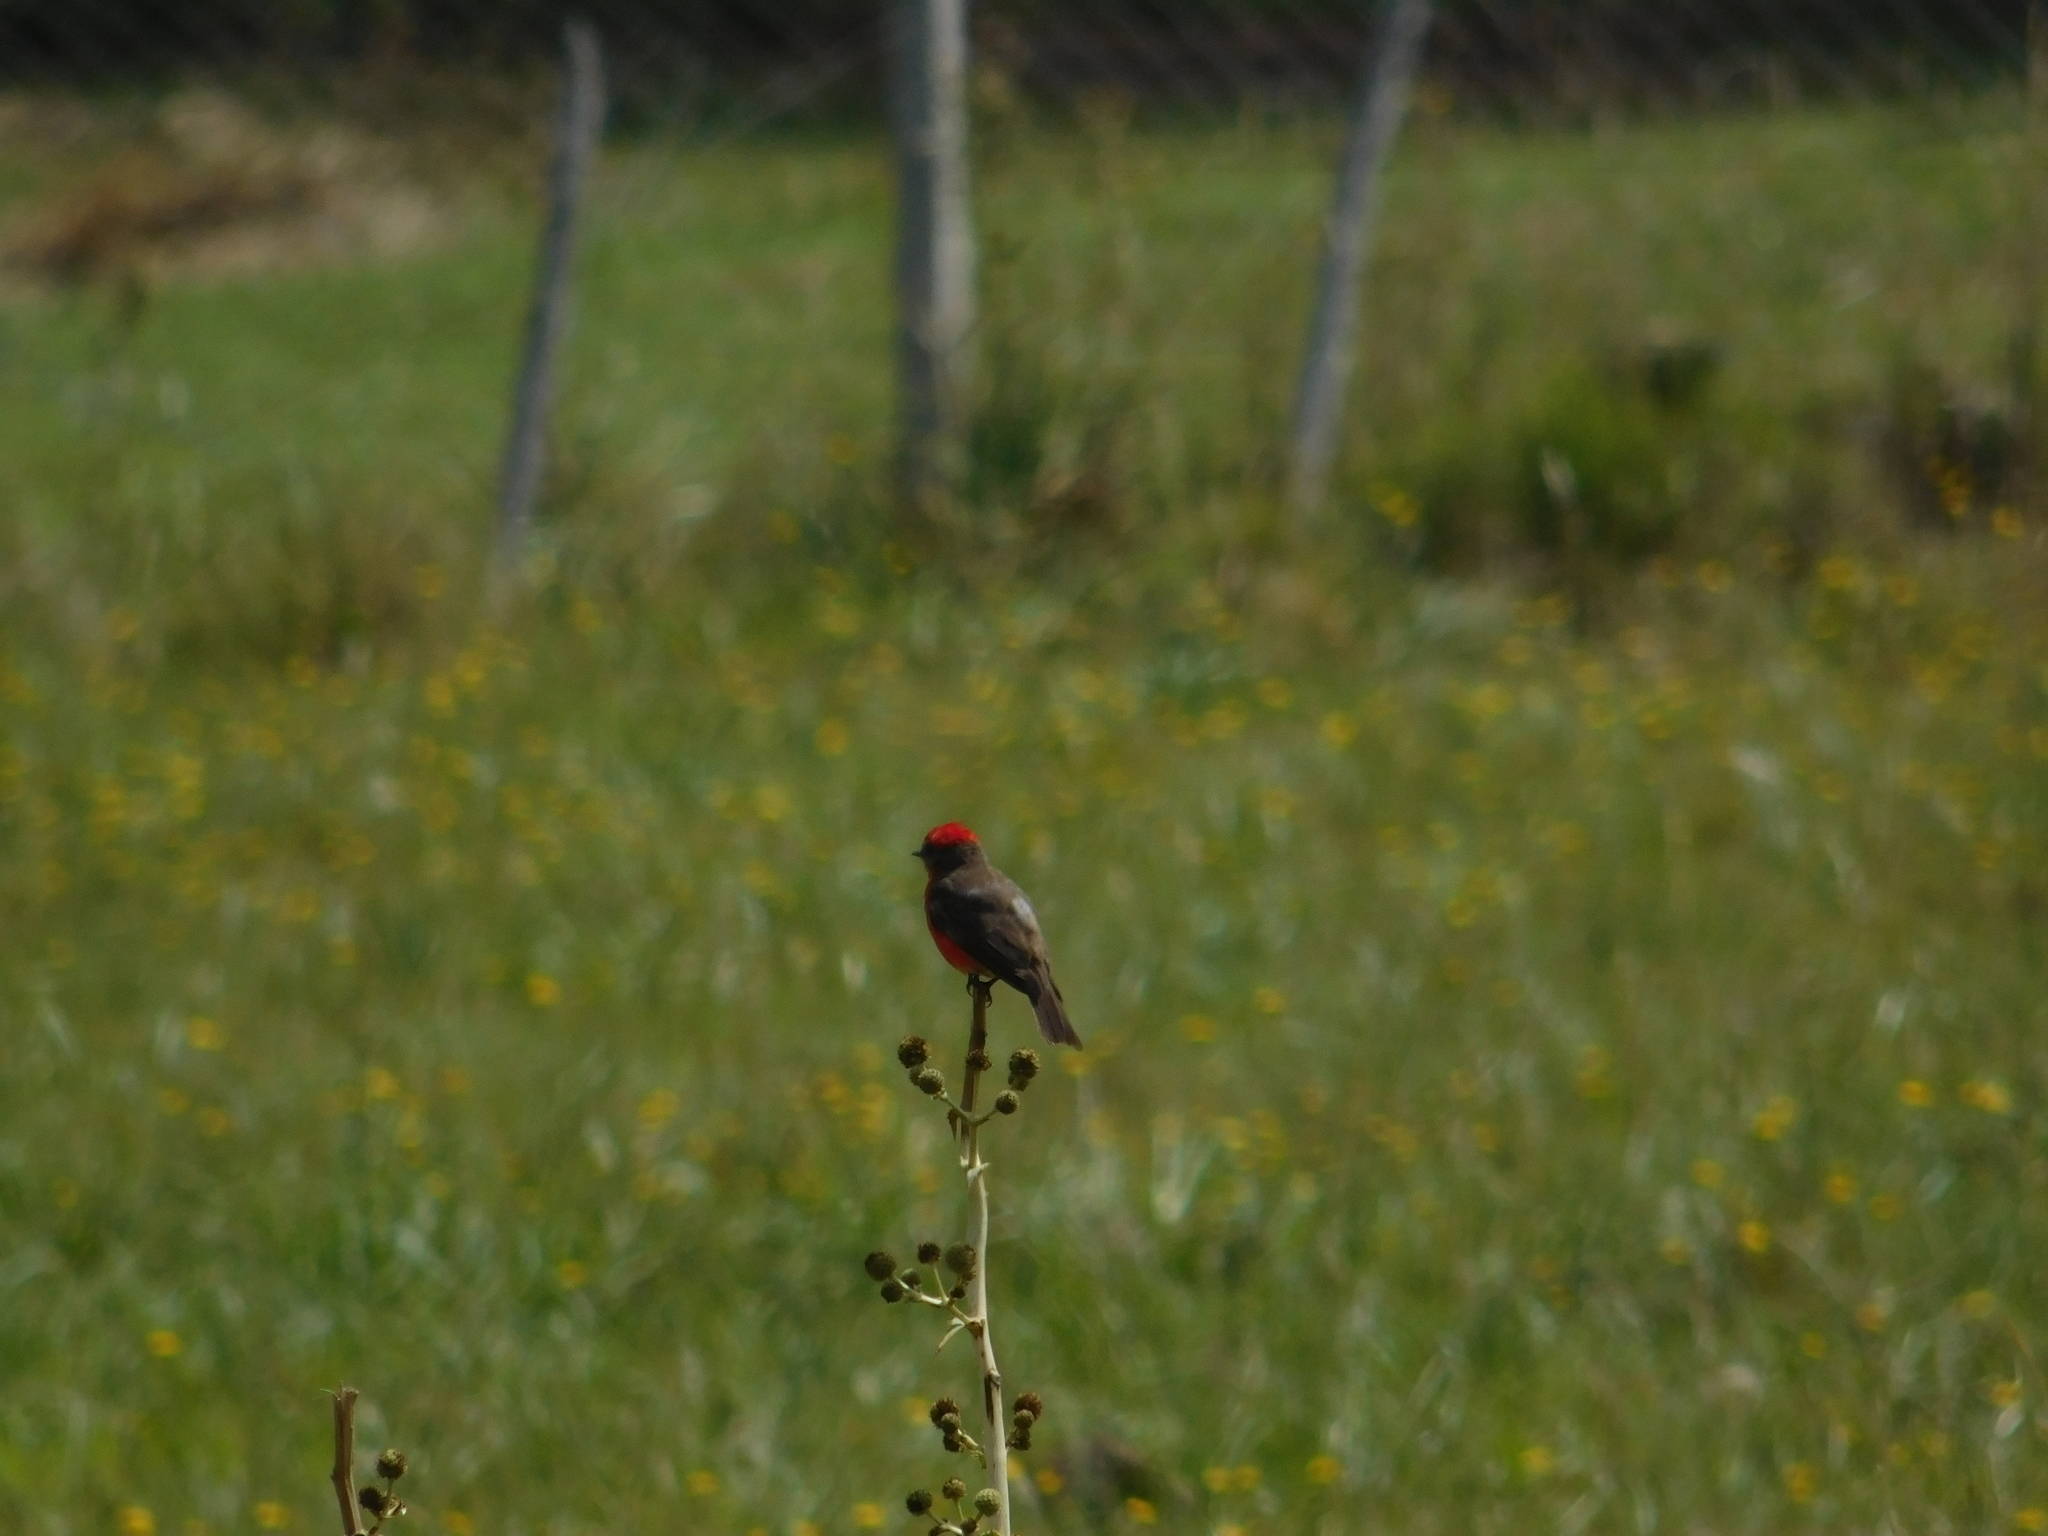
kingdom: Animalia
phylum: Chordata
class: Aves
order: Passeriformes
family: Tyrannidae
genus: Pyrocephalus
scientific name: Pyrocephalus rubinus
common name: Vermilion flycatcher
